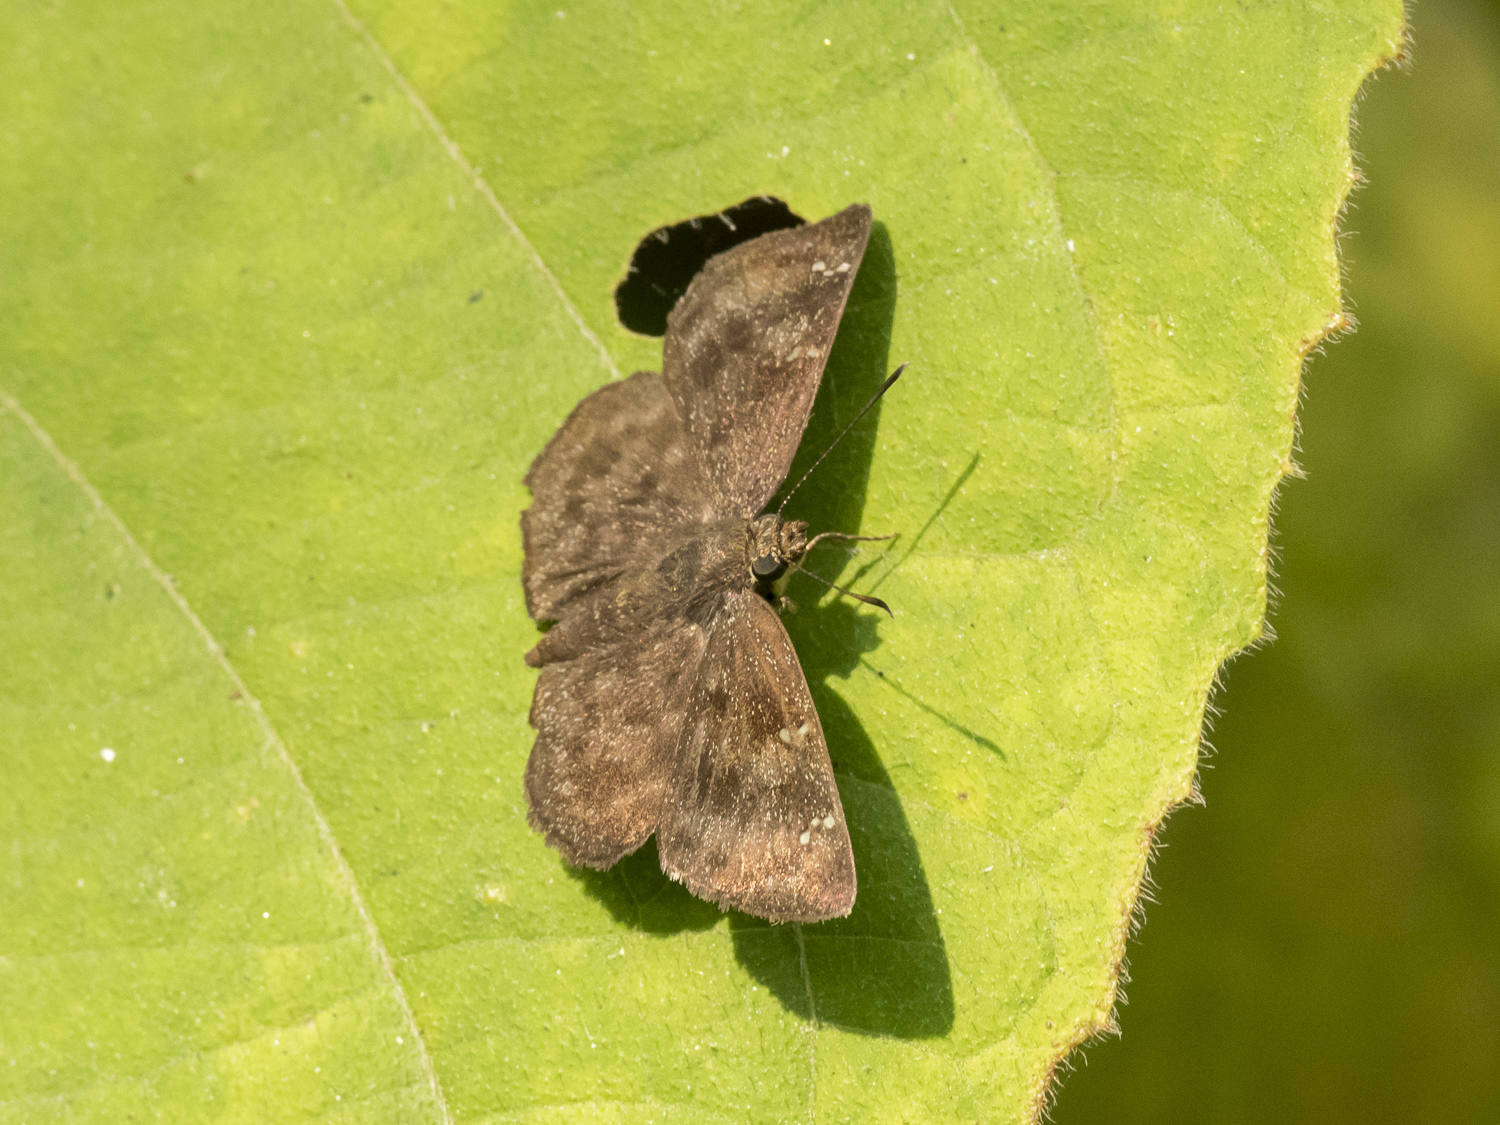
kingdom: Animalia
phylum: Arthropoda
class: Insecta
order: Lepidoptera
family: Hesperiidae
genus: Sarangesa
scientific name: Sarangesa dasahara
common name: Common small flat
